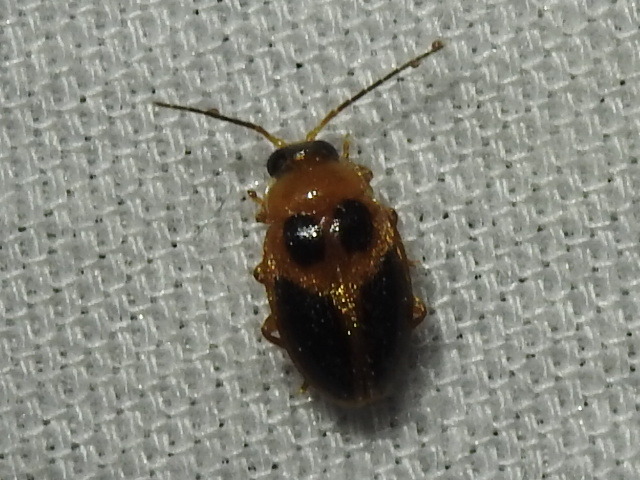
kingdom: Animalia
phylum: Arthropoda
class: Insecta
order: Coleoptera
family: Scirtidae
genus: Sacodes
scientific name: Sacodes pulchella
